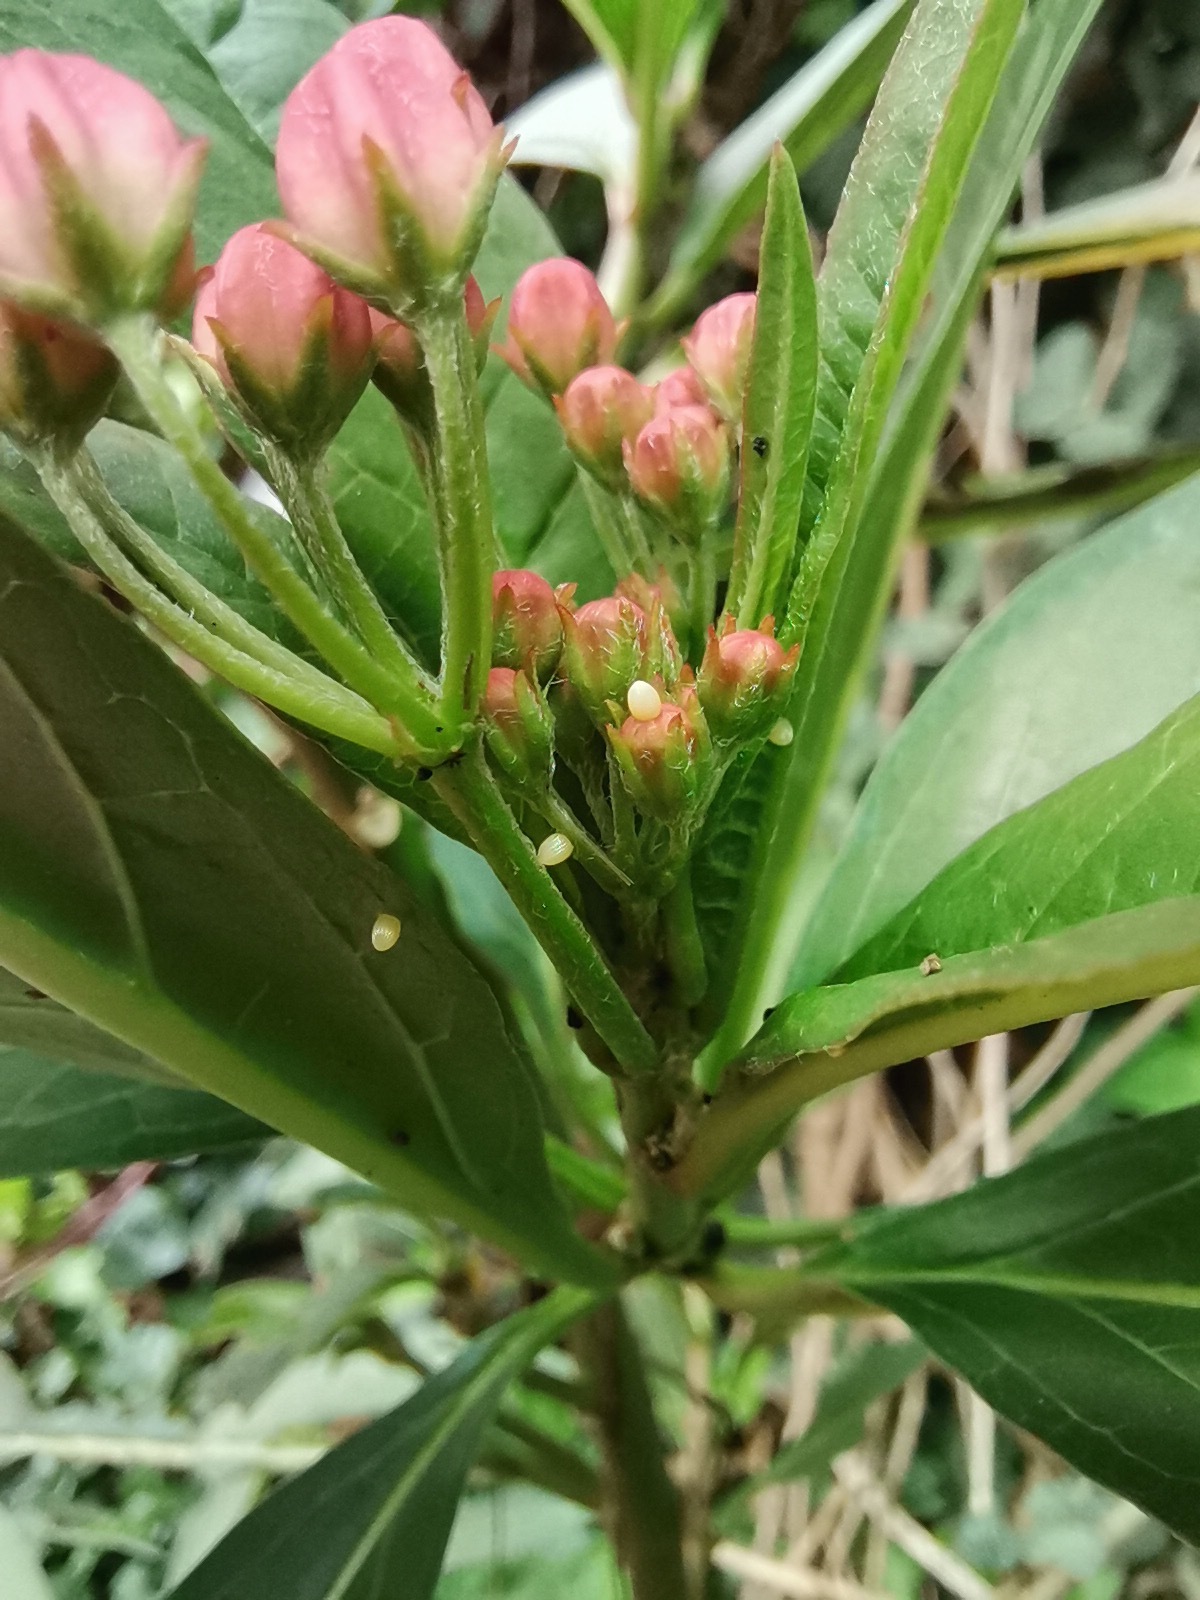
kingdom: Animalia
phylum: Arthropoda
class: Insecta
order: Lepidoptera
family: Nymphalidae
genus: Danaus
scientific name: Danaus plexippus
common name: Monarch
